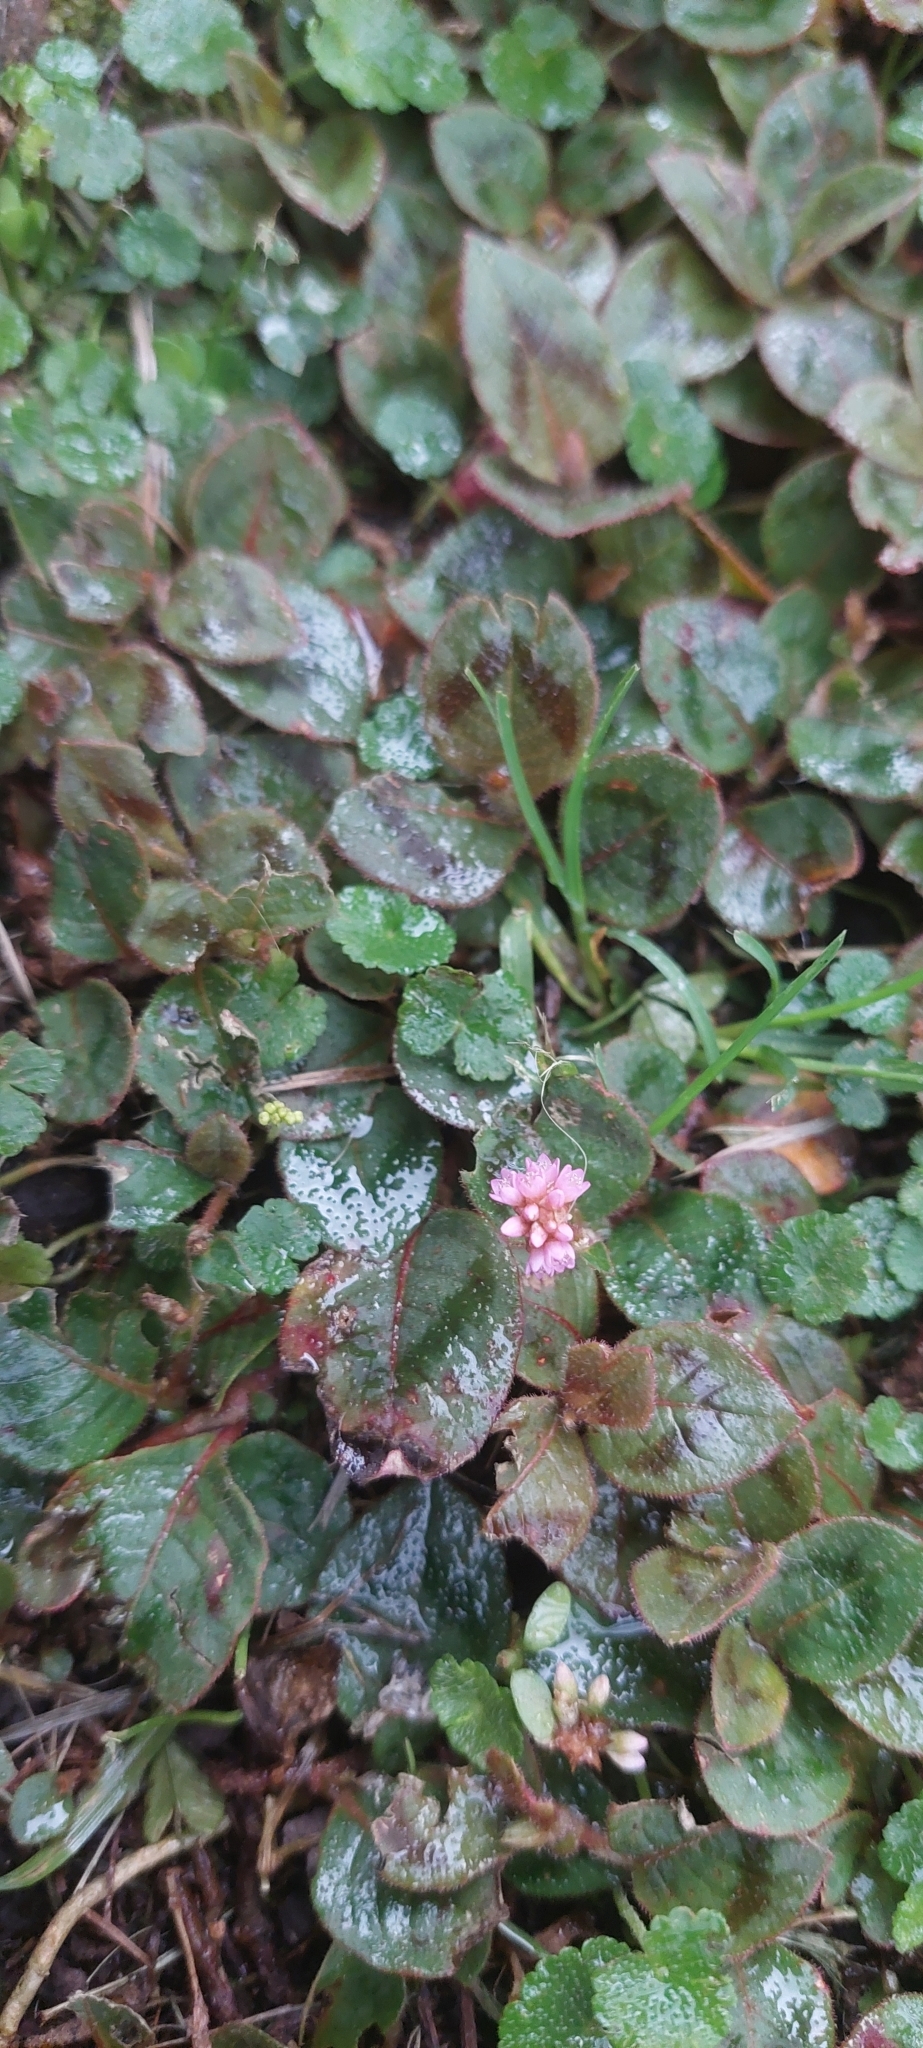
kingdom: Plantae
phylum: Tracheophyta
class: Magnoliopsida
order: Caryophyllales
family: Polygonaceae
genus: Persicaria
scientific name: Persicaria capitata
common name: Pinkhead smartweed
